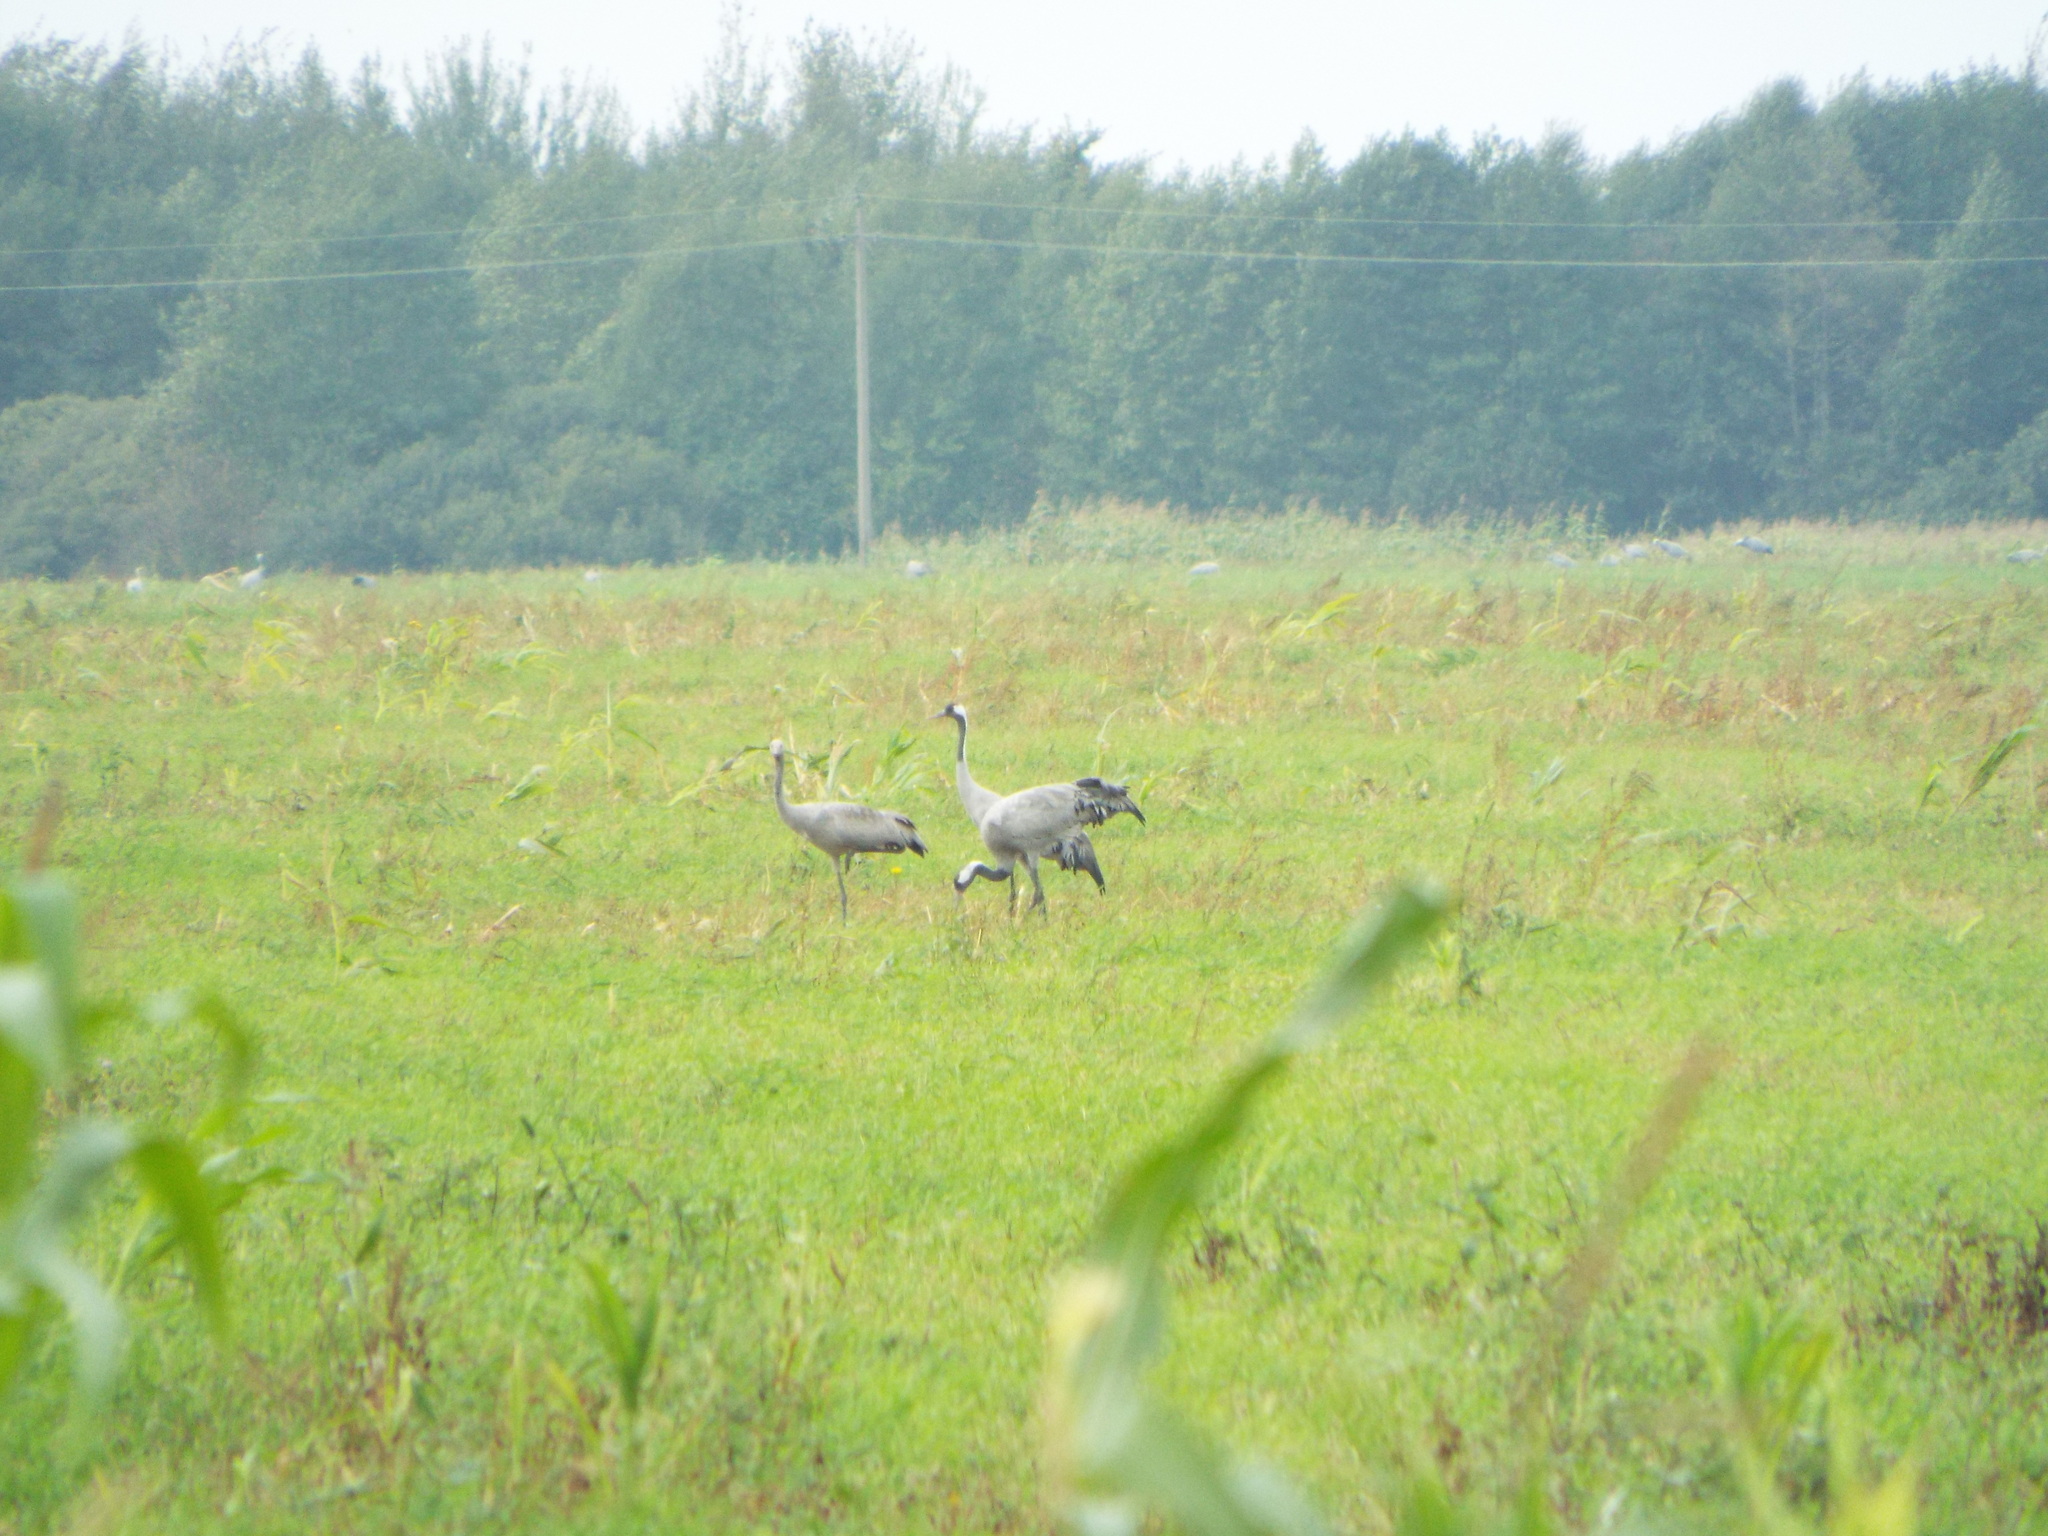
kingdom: Animalia
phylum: Chordata
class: Aves
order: Gruiformes
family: Gruidae
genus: Grus
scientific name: Grus grus
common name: Common crane
